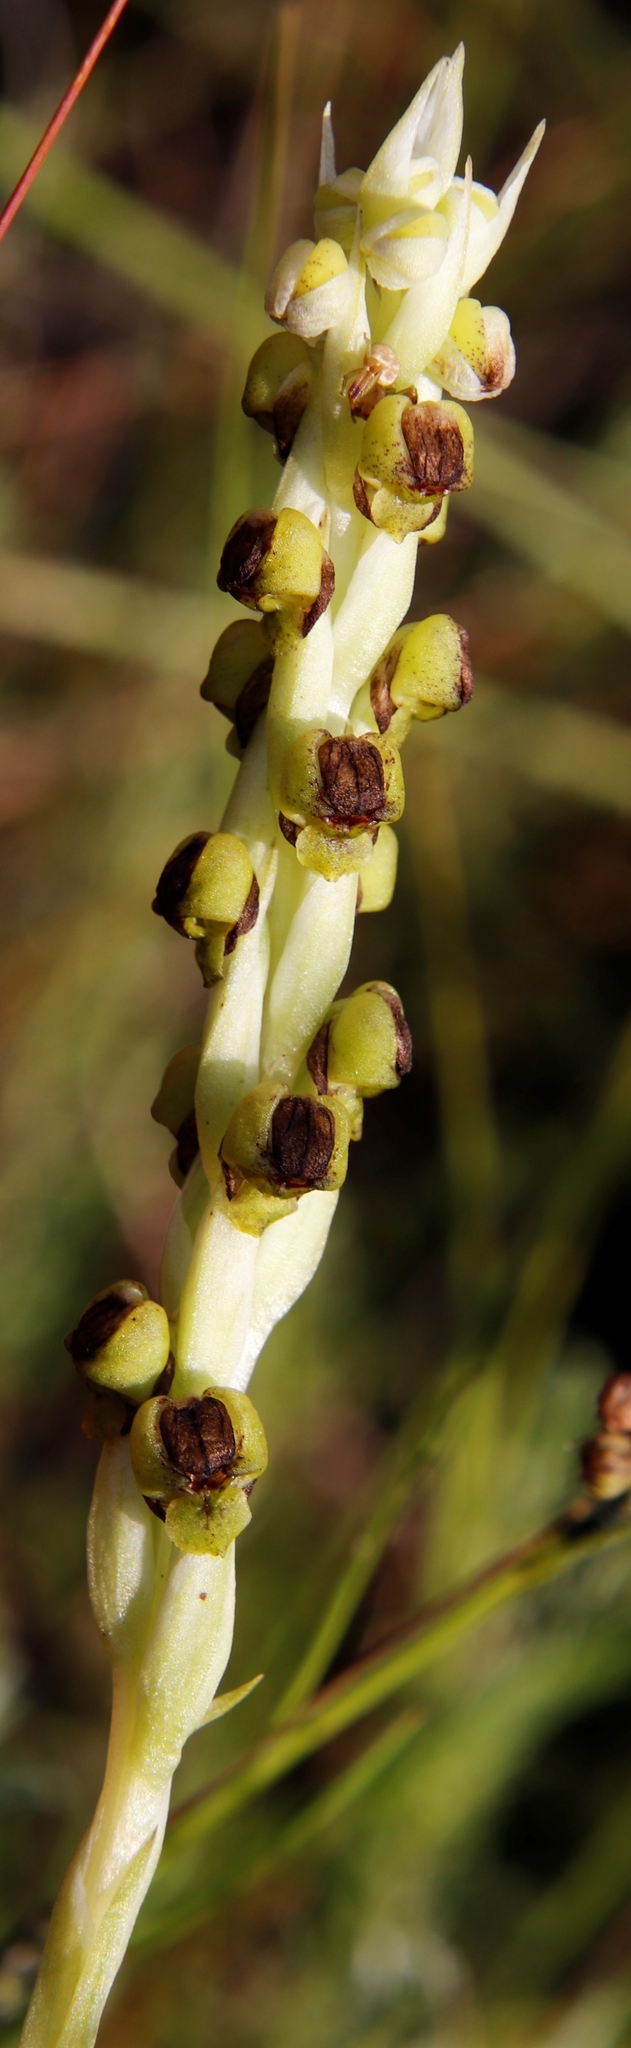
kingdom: Plantae
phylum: Tracheophyta
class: Liliopsida
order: Asparagales
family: Orchidaceae
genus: Corycium
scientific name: Corycium nigrescens
